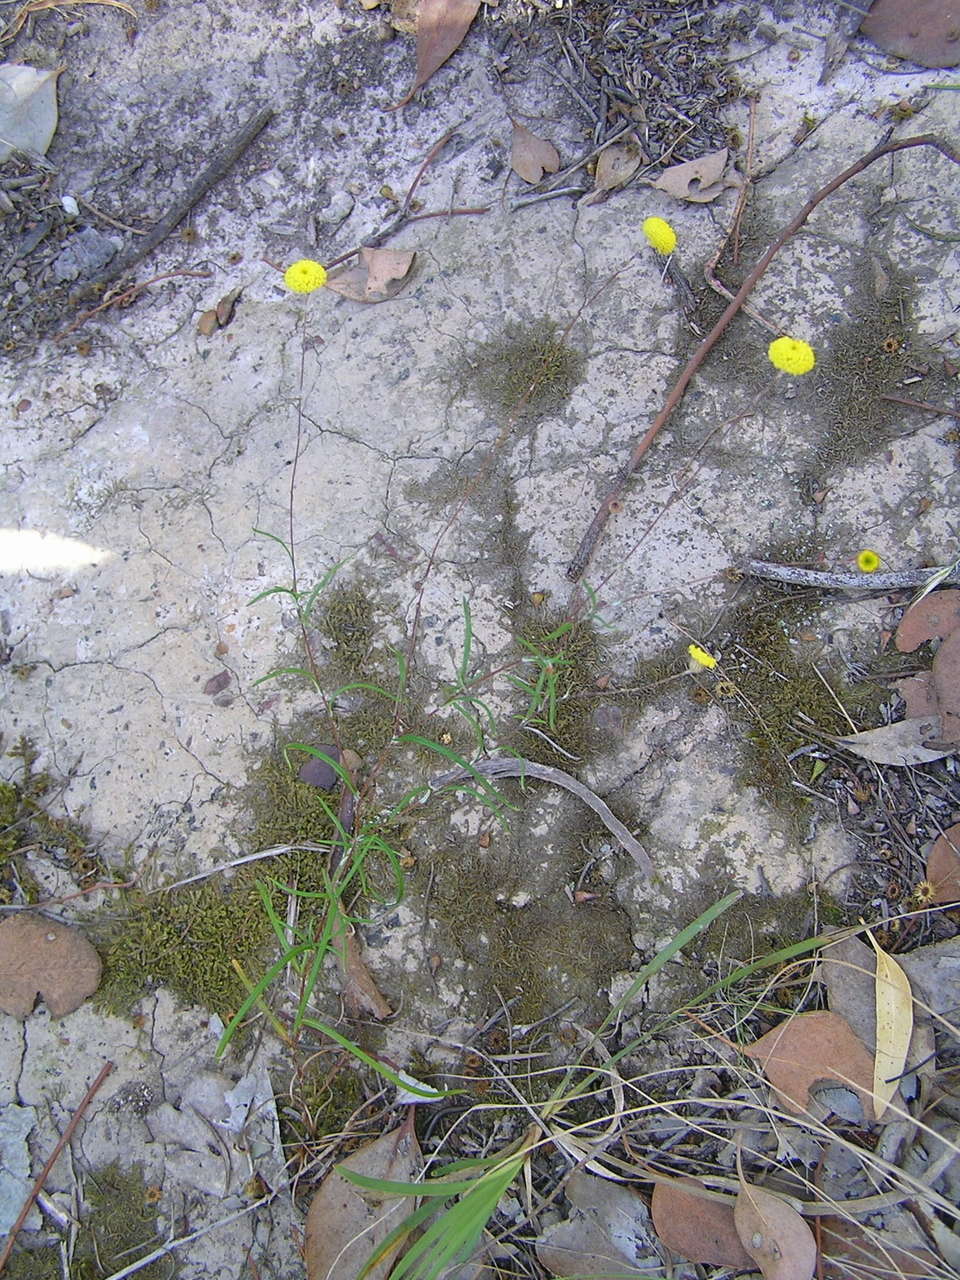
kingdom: Plantae
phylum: Tracheophyta
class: Magnoliopsida
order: Asterales
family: Asteraceae
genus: Leptorhynchos
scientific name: Leptorhynchos tenuifolius
